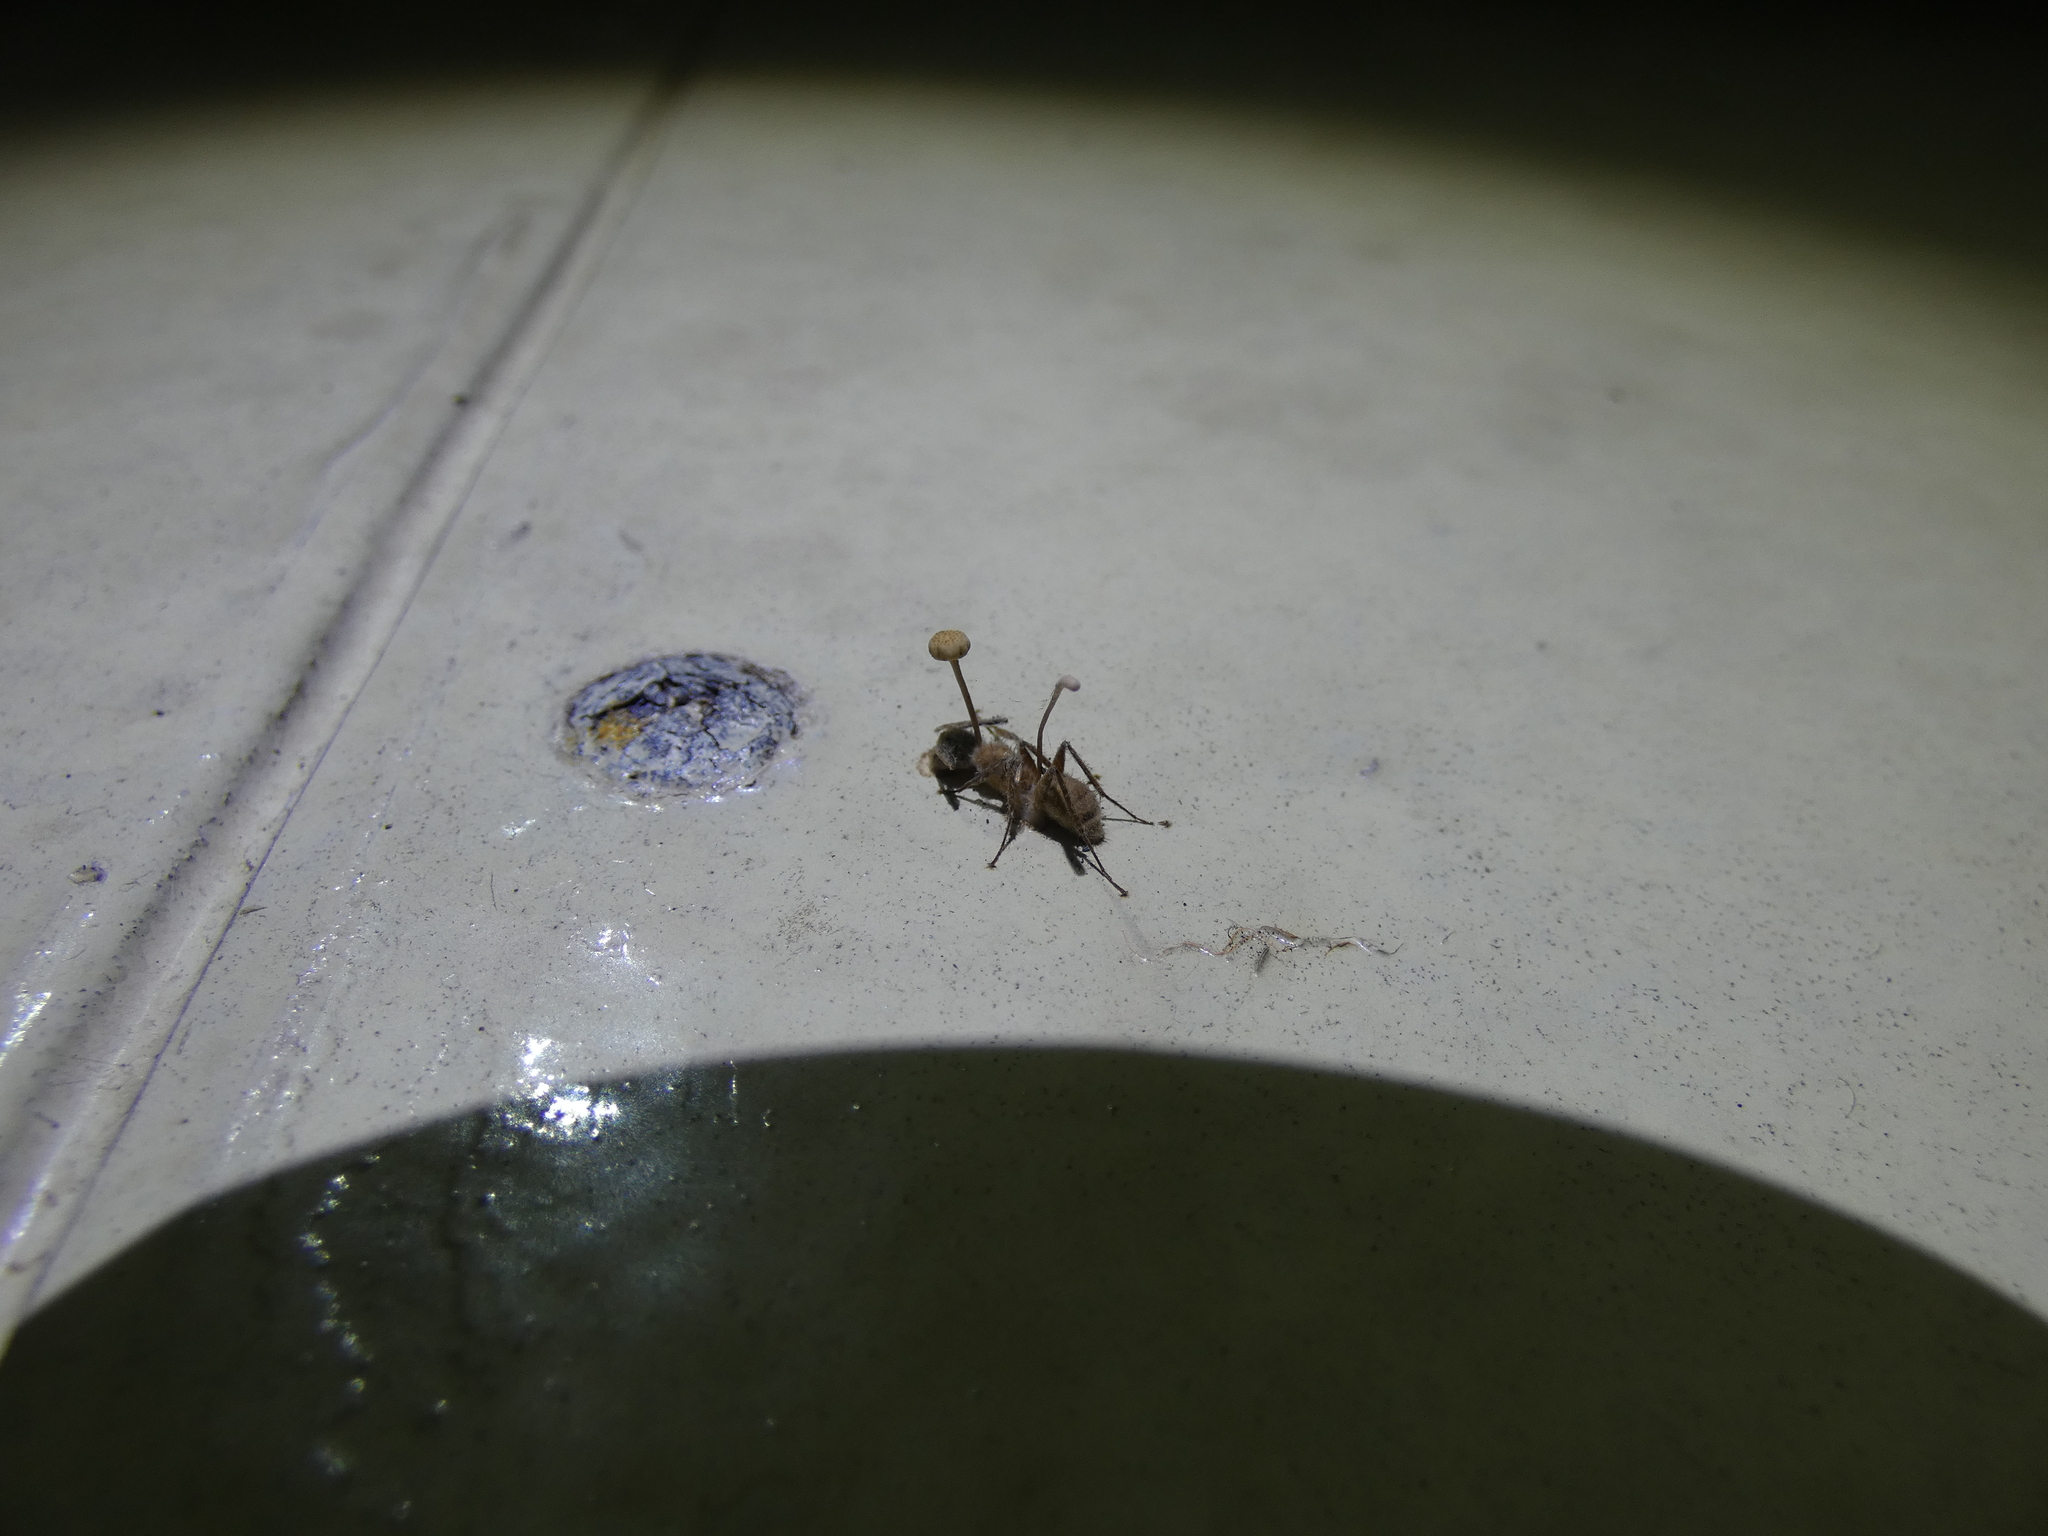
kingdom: Fungi
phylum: Ascomycota
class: Sordariomycetes
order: Hypocreales
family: Ophiocordycipitaceae
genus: Ophiocordyceps
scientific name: Ophiocordyceps lloydii
